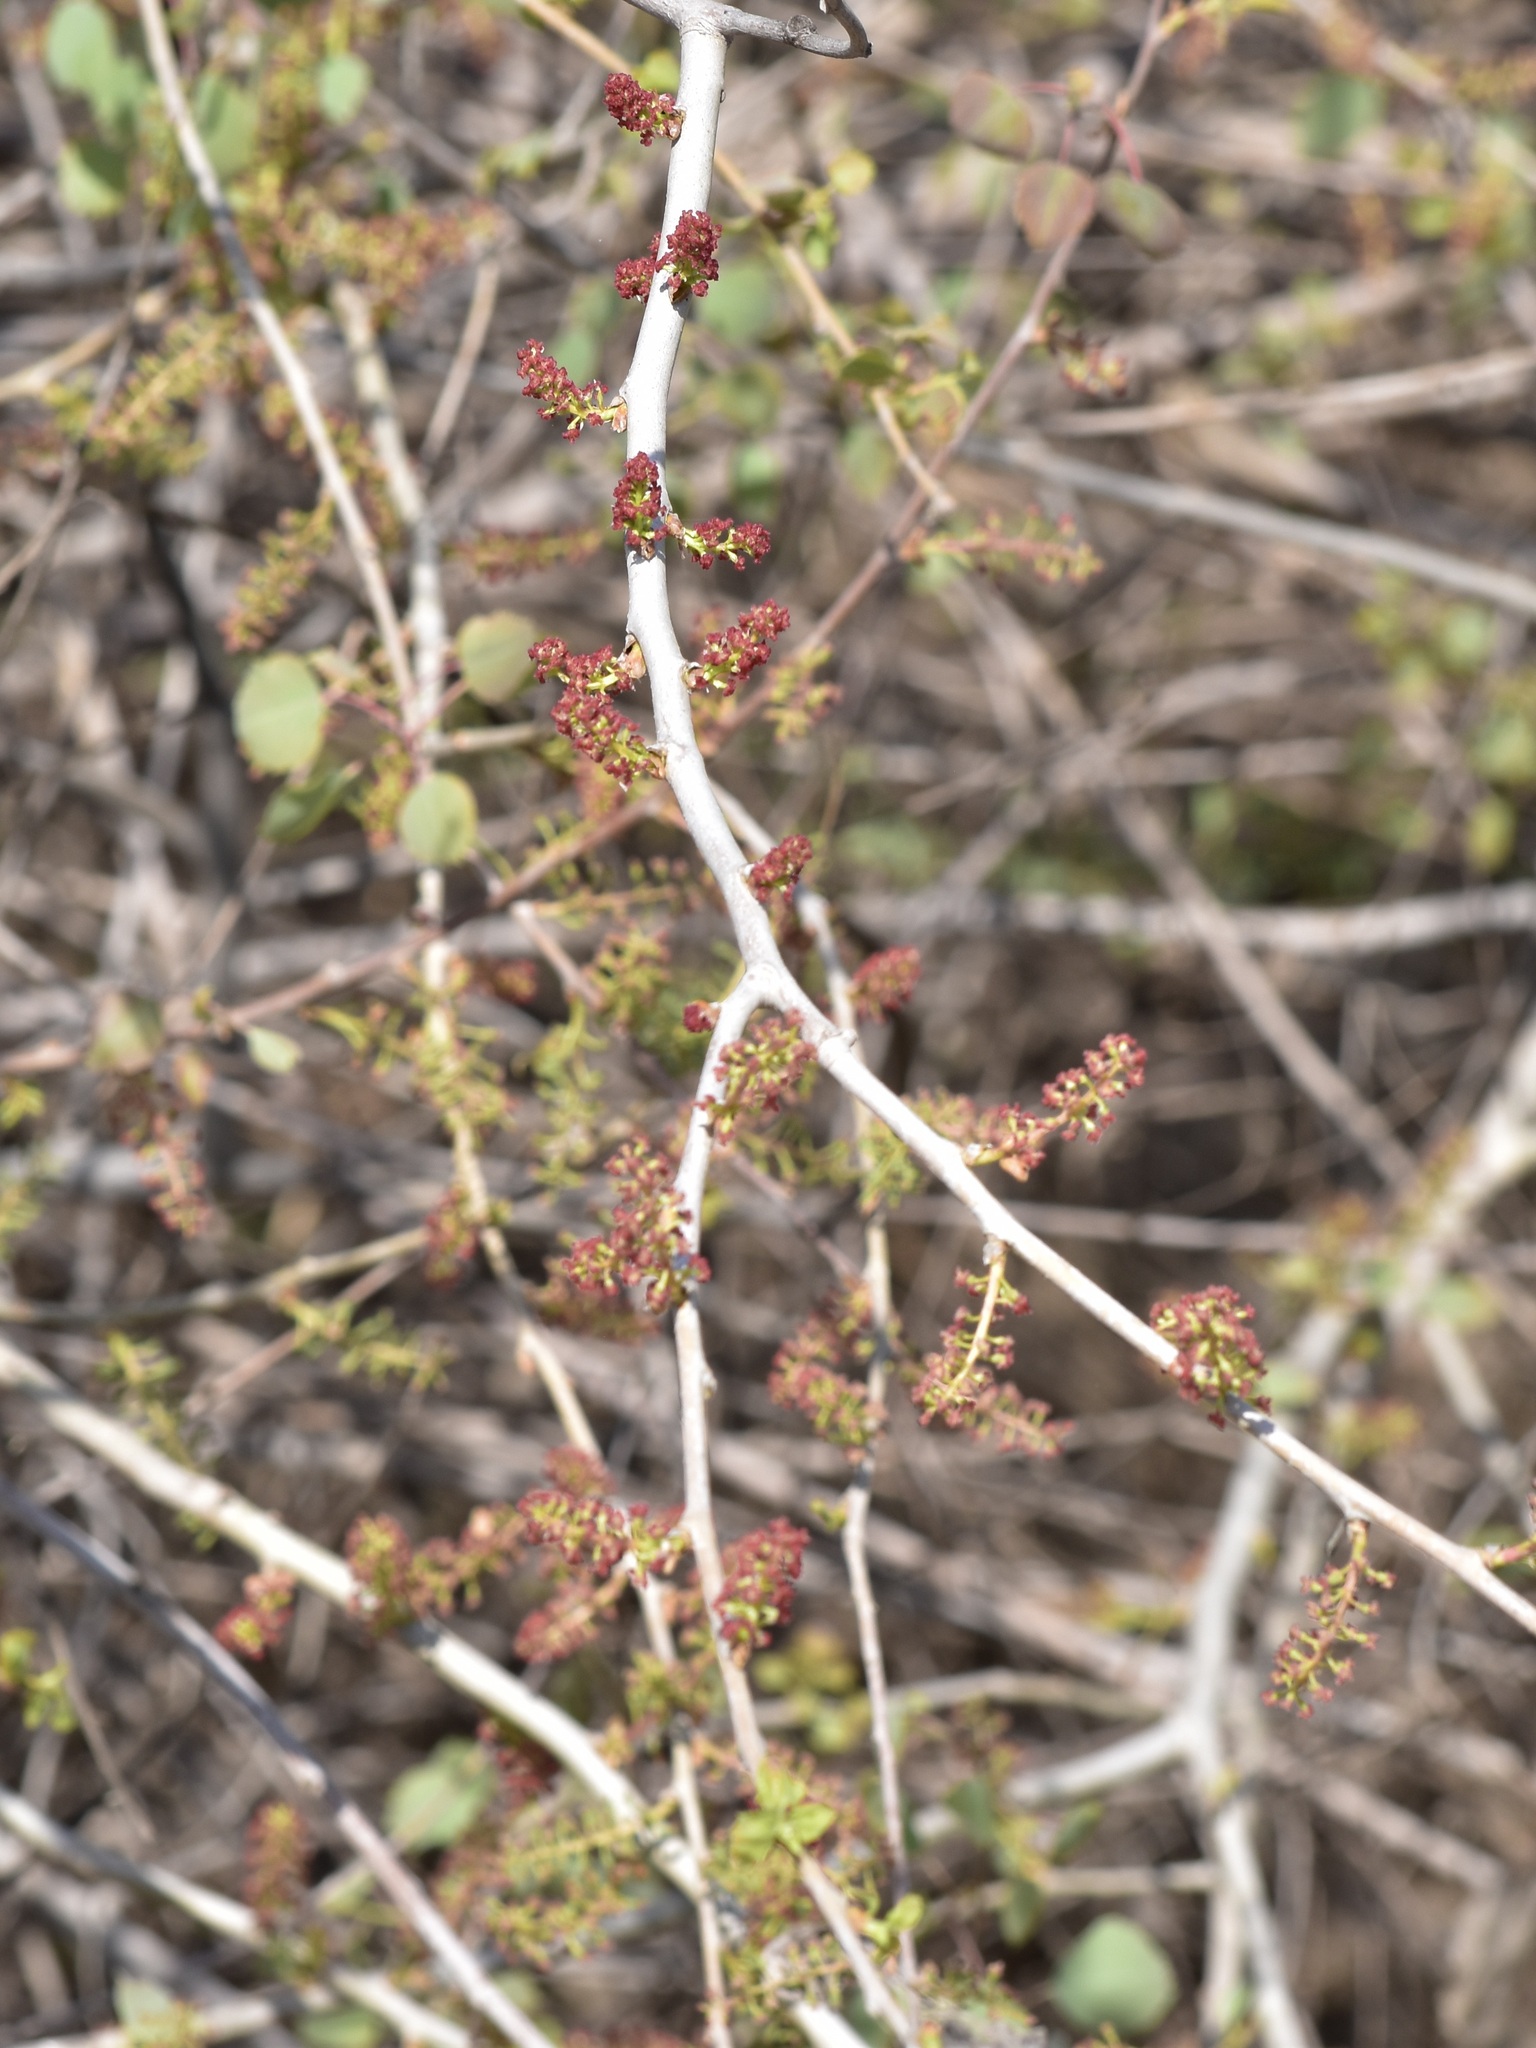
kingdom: Plantae
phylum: Tracheophyta
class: Magnoliopsida
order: Malpighiales
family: Salicaceae
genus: Populus
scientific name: Populus euphratica
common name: Euphrates poplar
